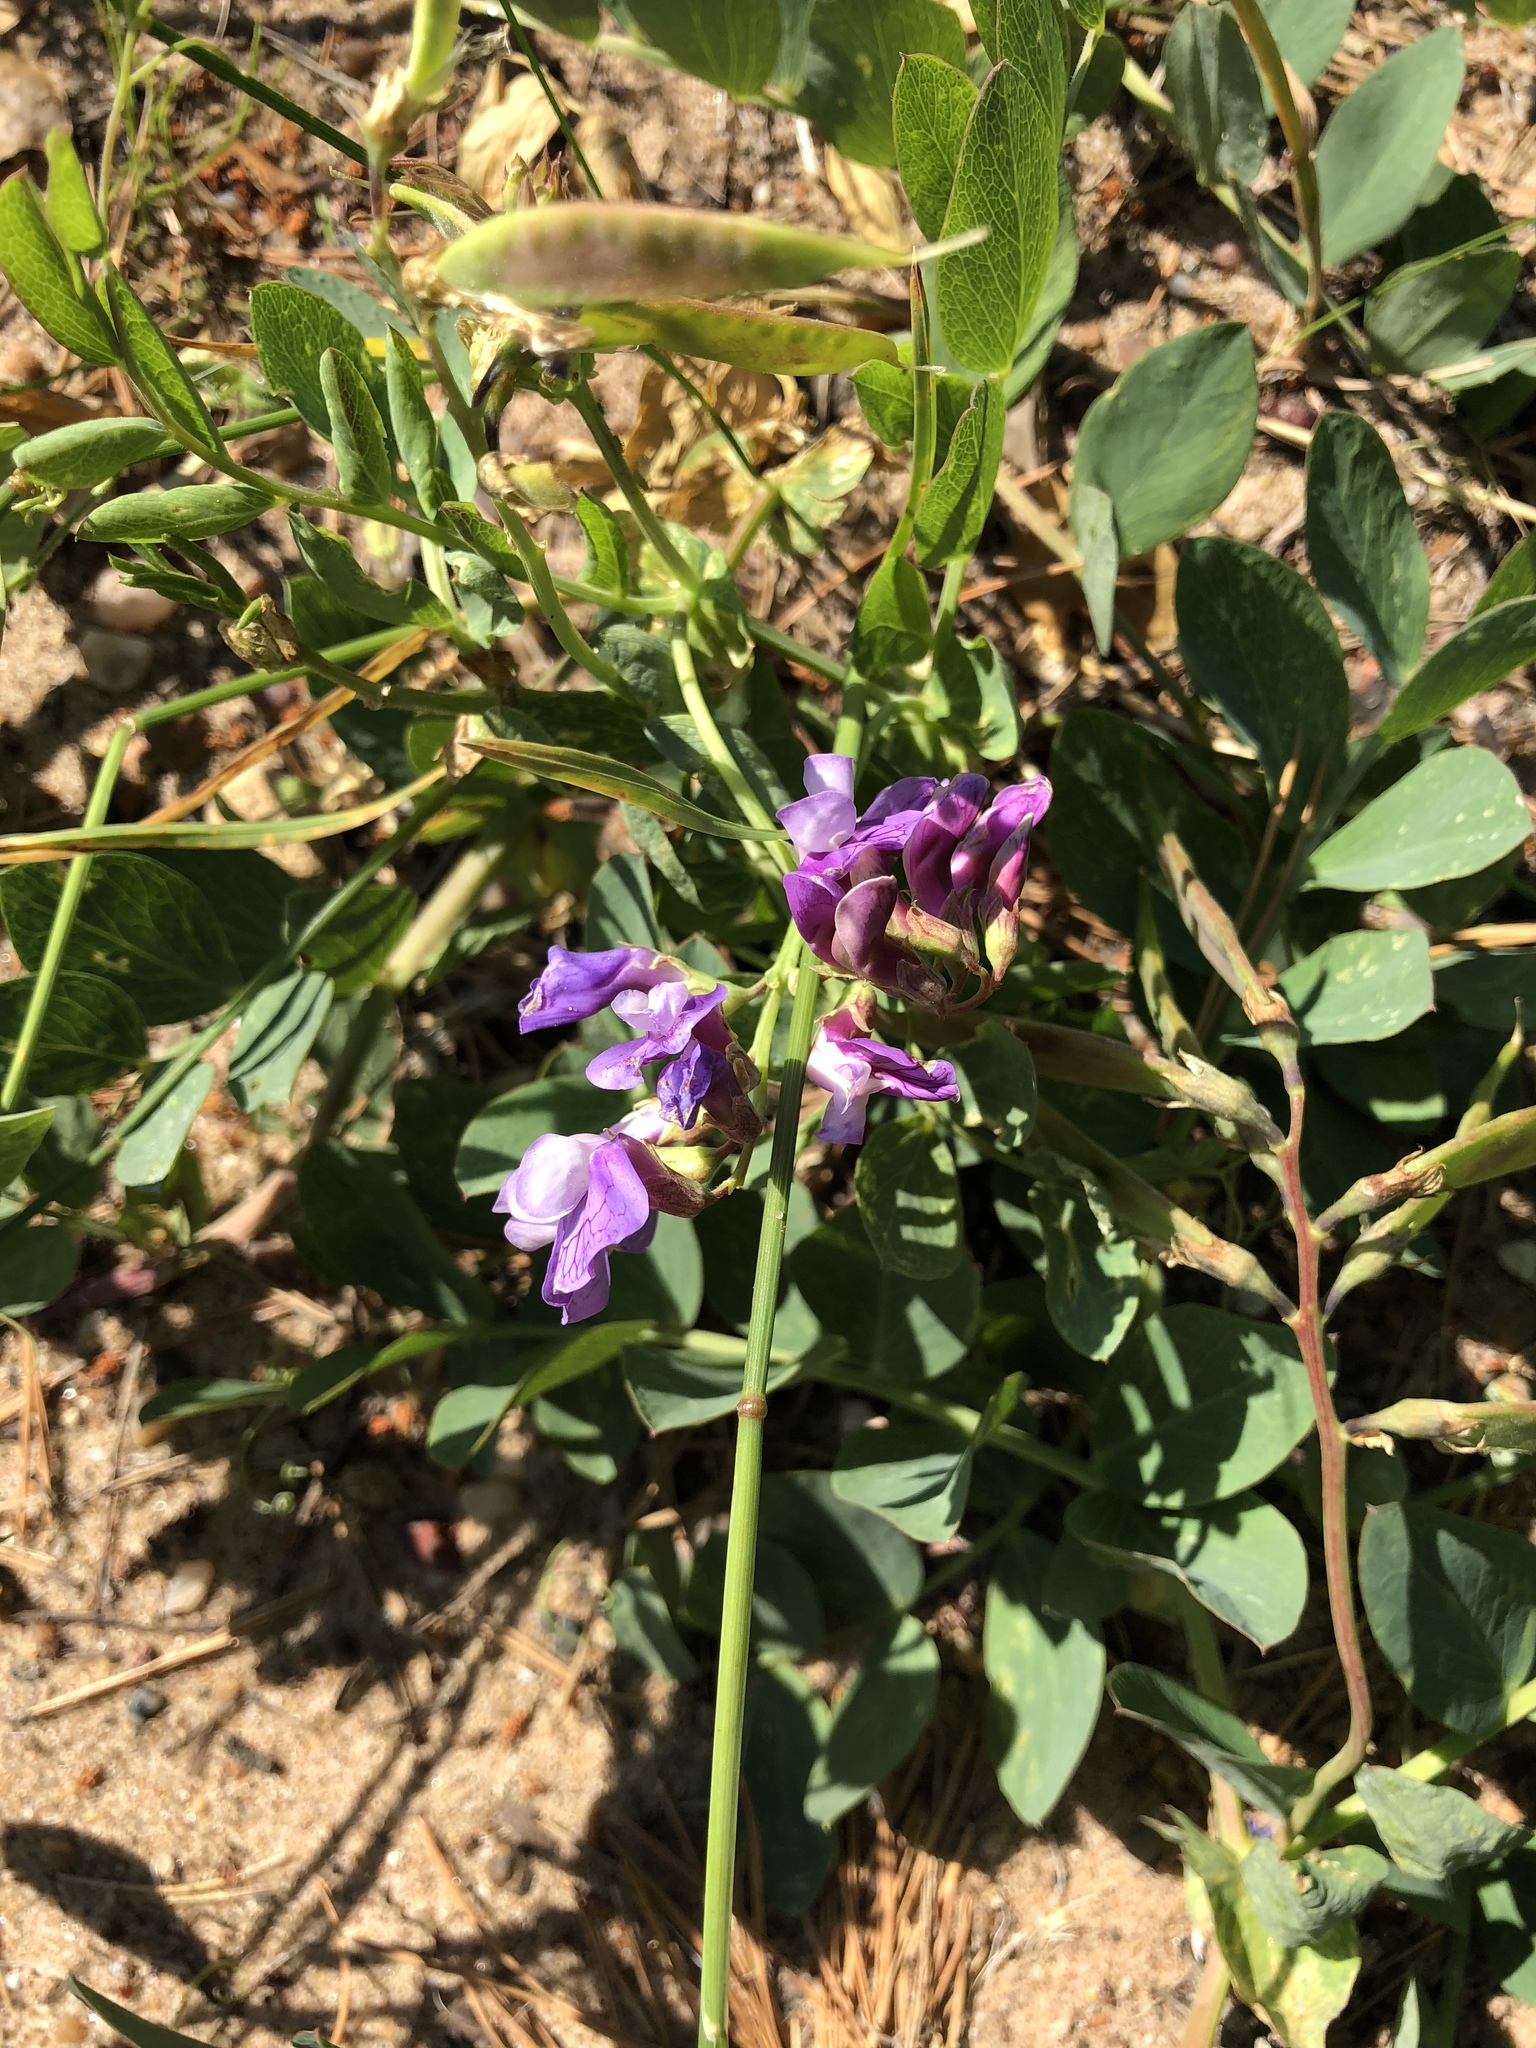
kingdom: Plantae
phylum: Tracheophyta
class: Magnoliopsida
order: Fabales
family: Fabaceae
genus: Lathyrus
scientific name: Lathyrus japonicus
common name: Sea pea
